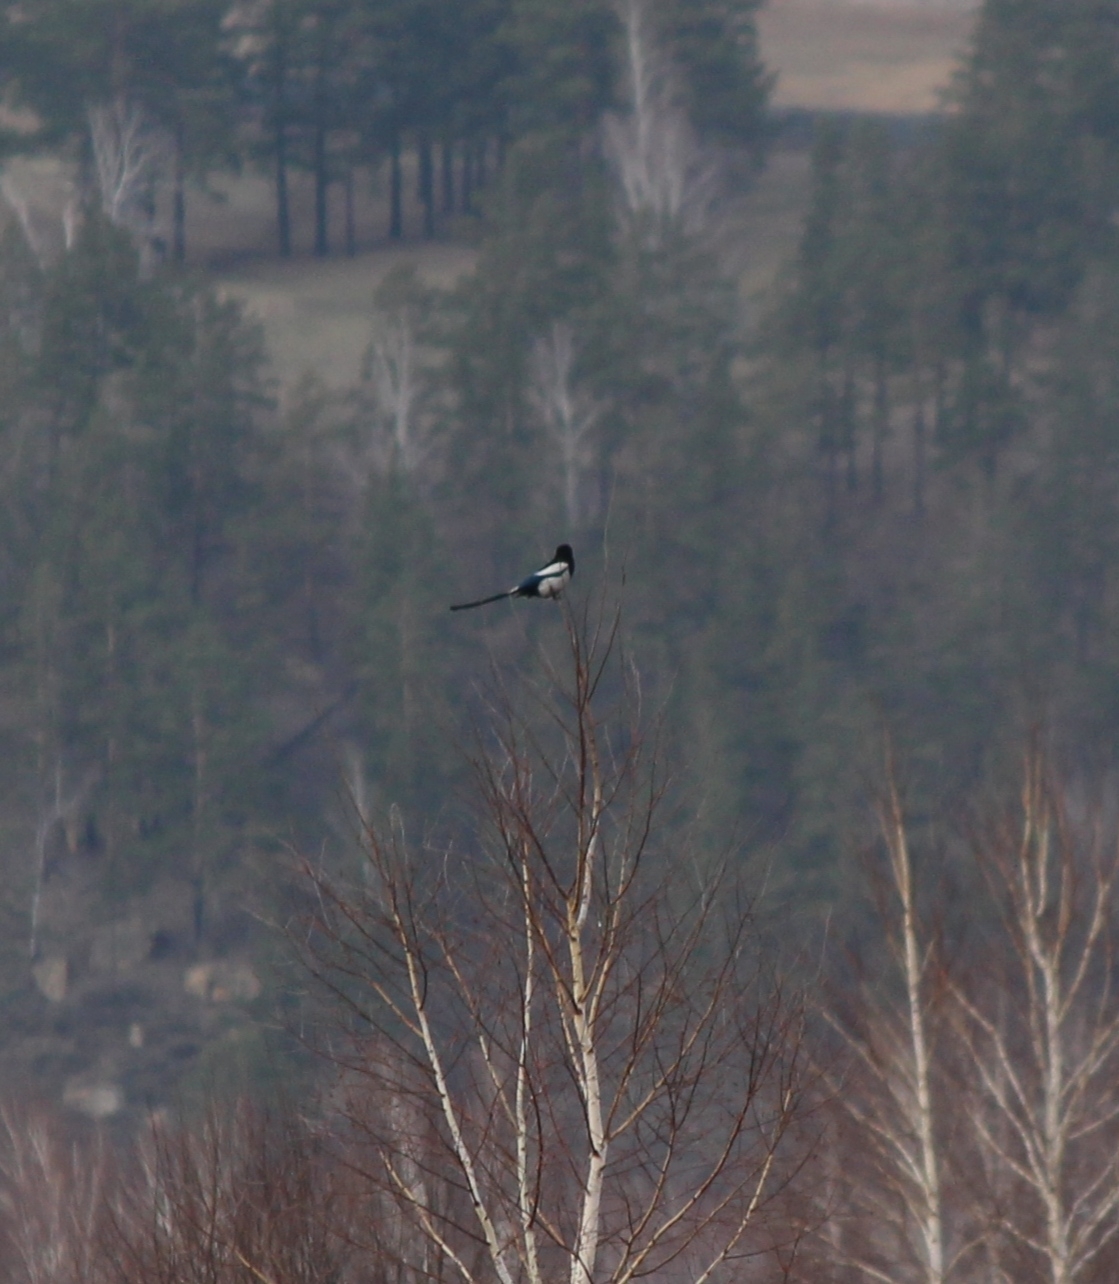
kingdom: Animalia
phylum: Chordata
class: Aves
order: Passeriformes
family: Corvidae
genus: Pica
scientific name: Pica pica
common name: Eurasian magpie
